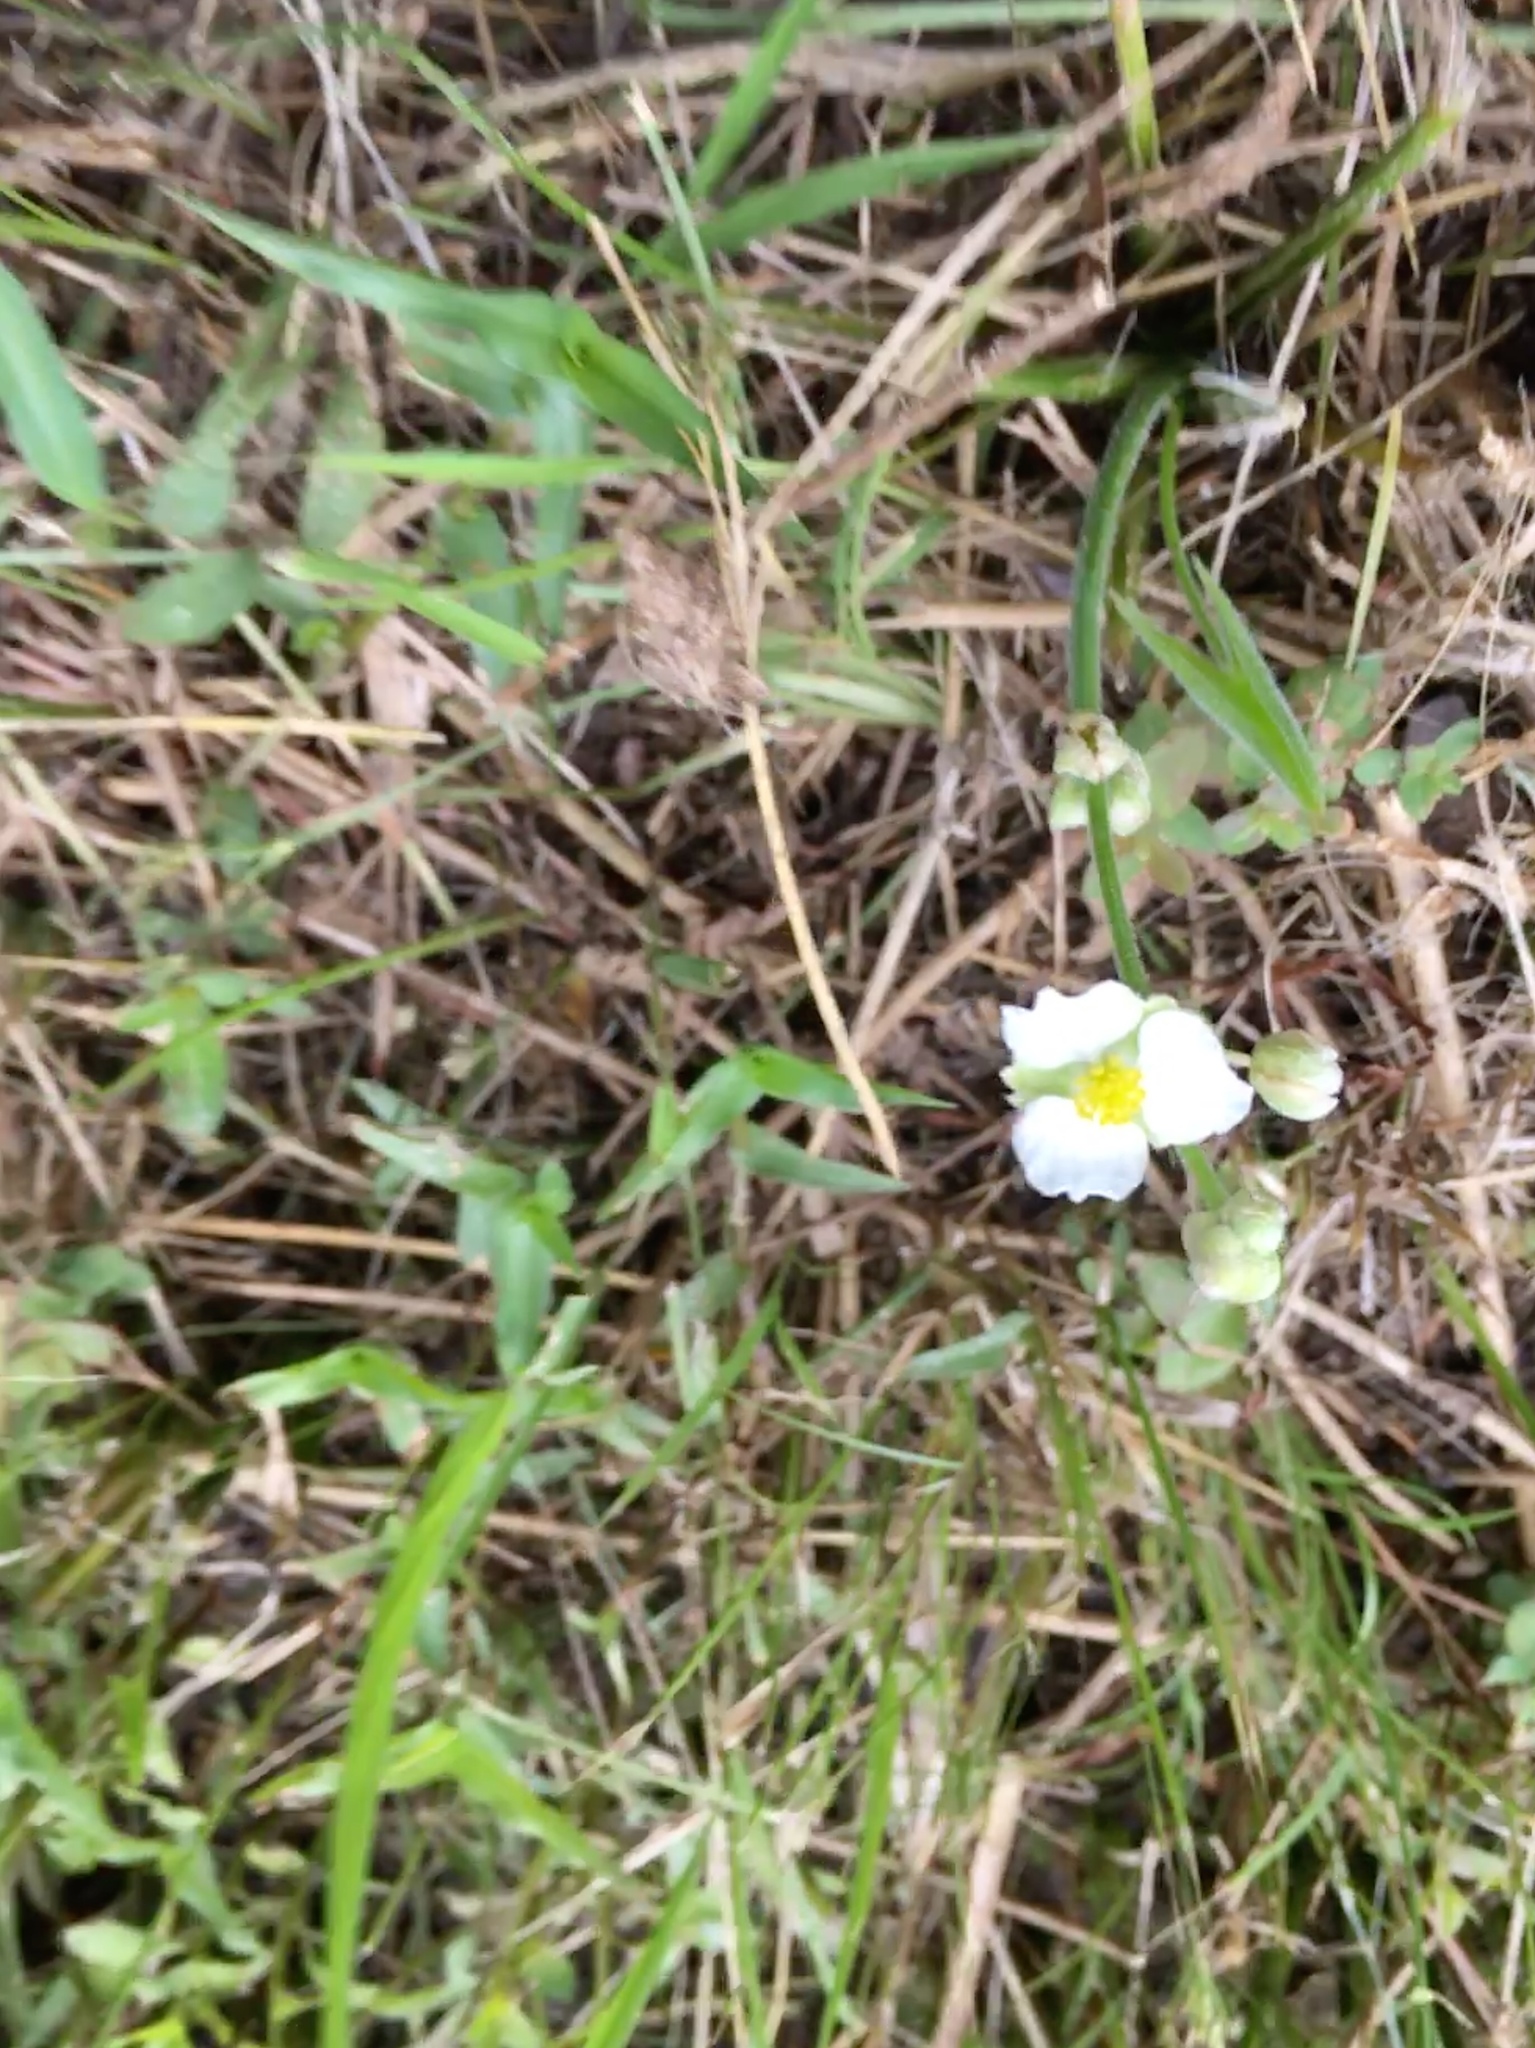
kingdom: Plantae
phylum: Tracheophyta
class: Liliopsida
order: Alismatales
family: Alismataceae
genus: Sagittaria
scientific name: Sagittaria latifolia
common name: Duck-potato
